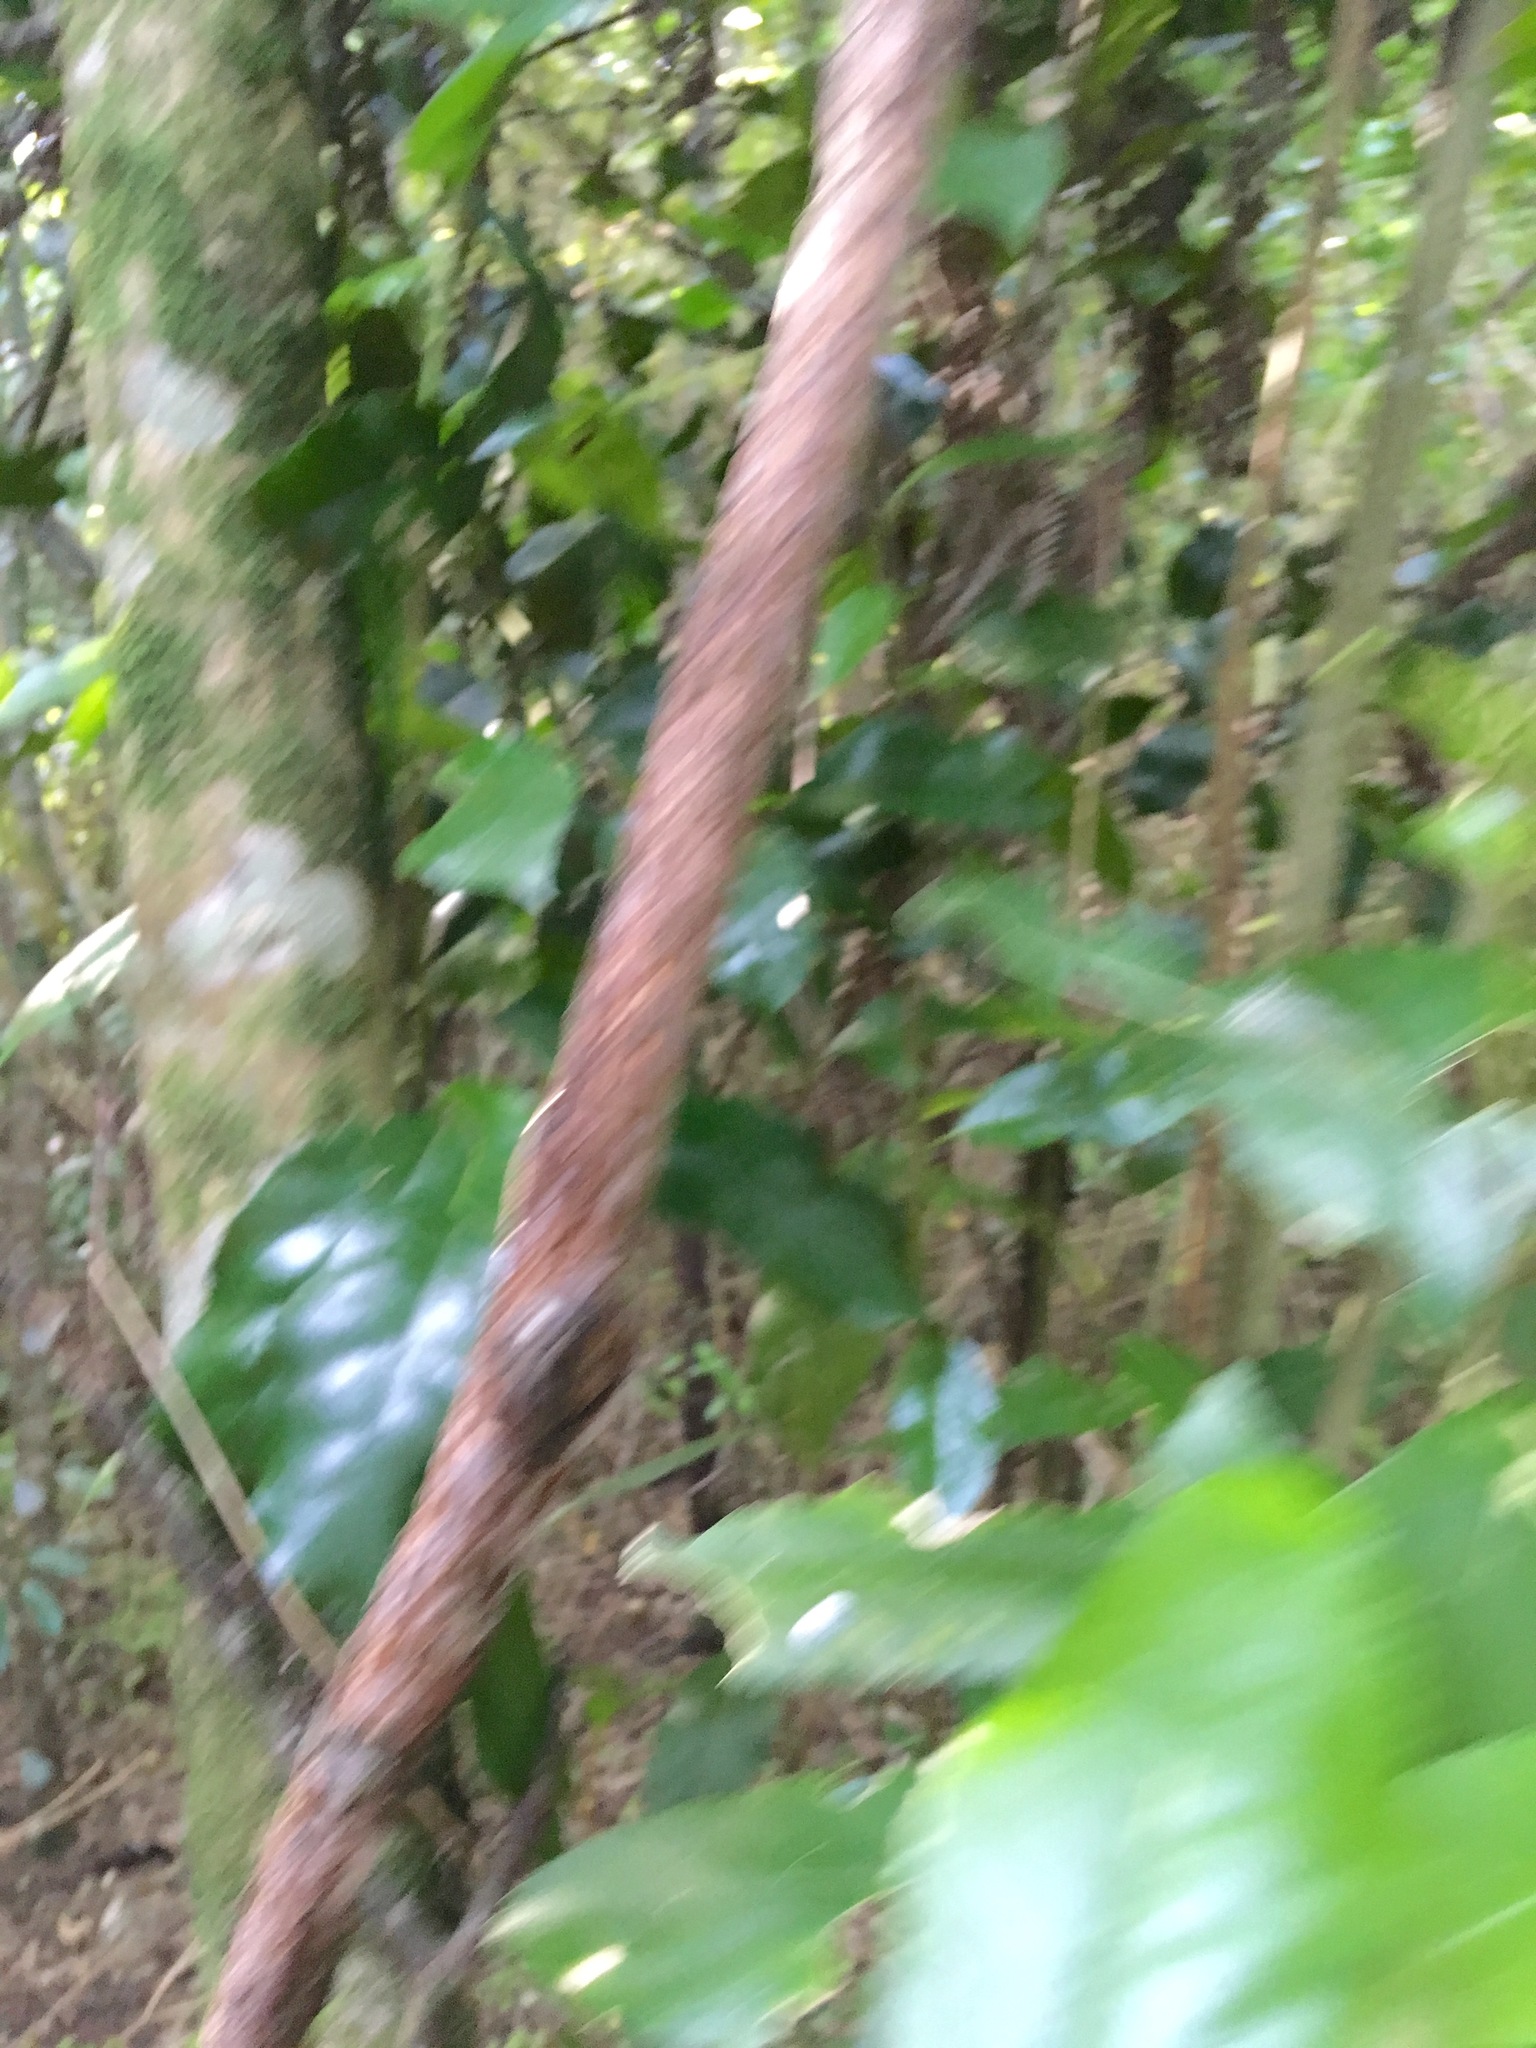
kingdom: Plantae
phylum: Tracheophyta
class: Magnoliopsida
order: Malpighiales
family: Passifloraceae
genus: Passiflora
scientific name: Passiflora tetrandra
